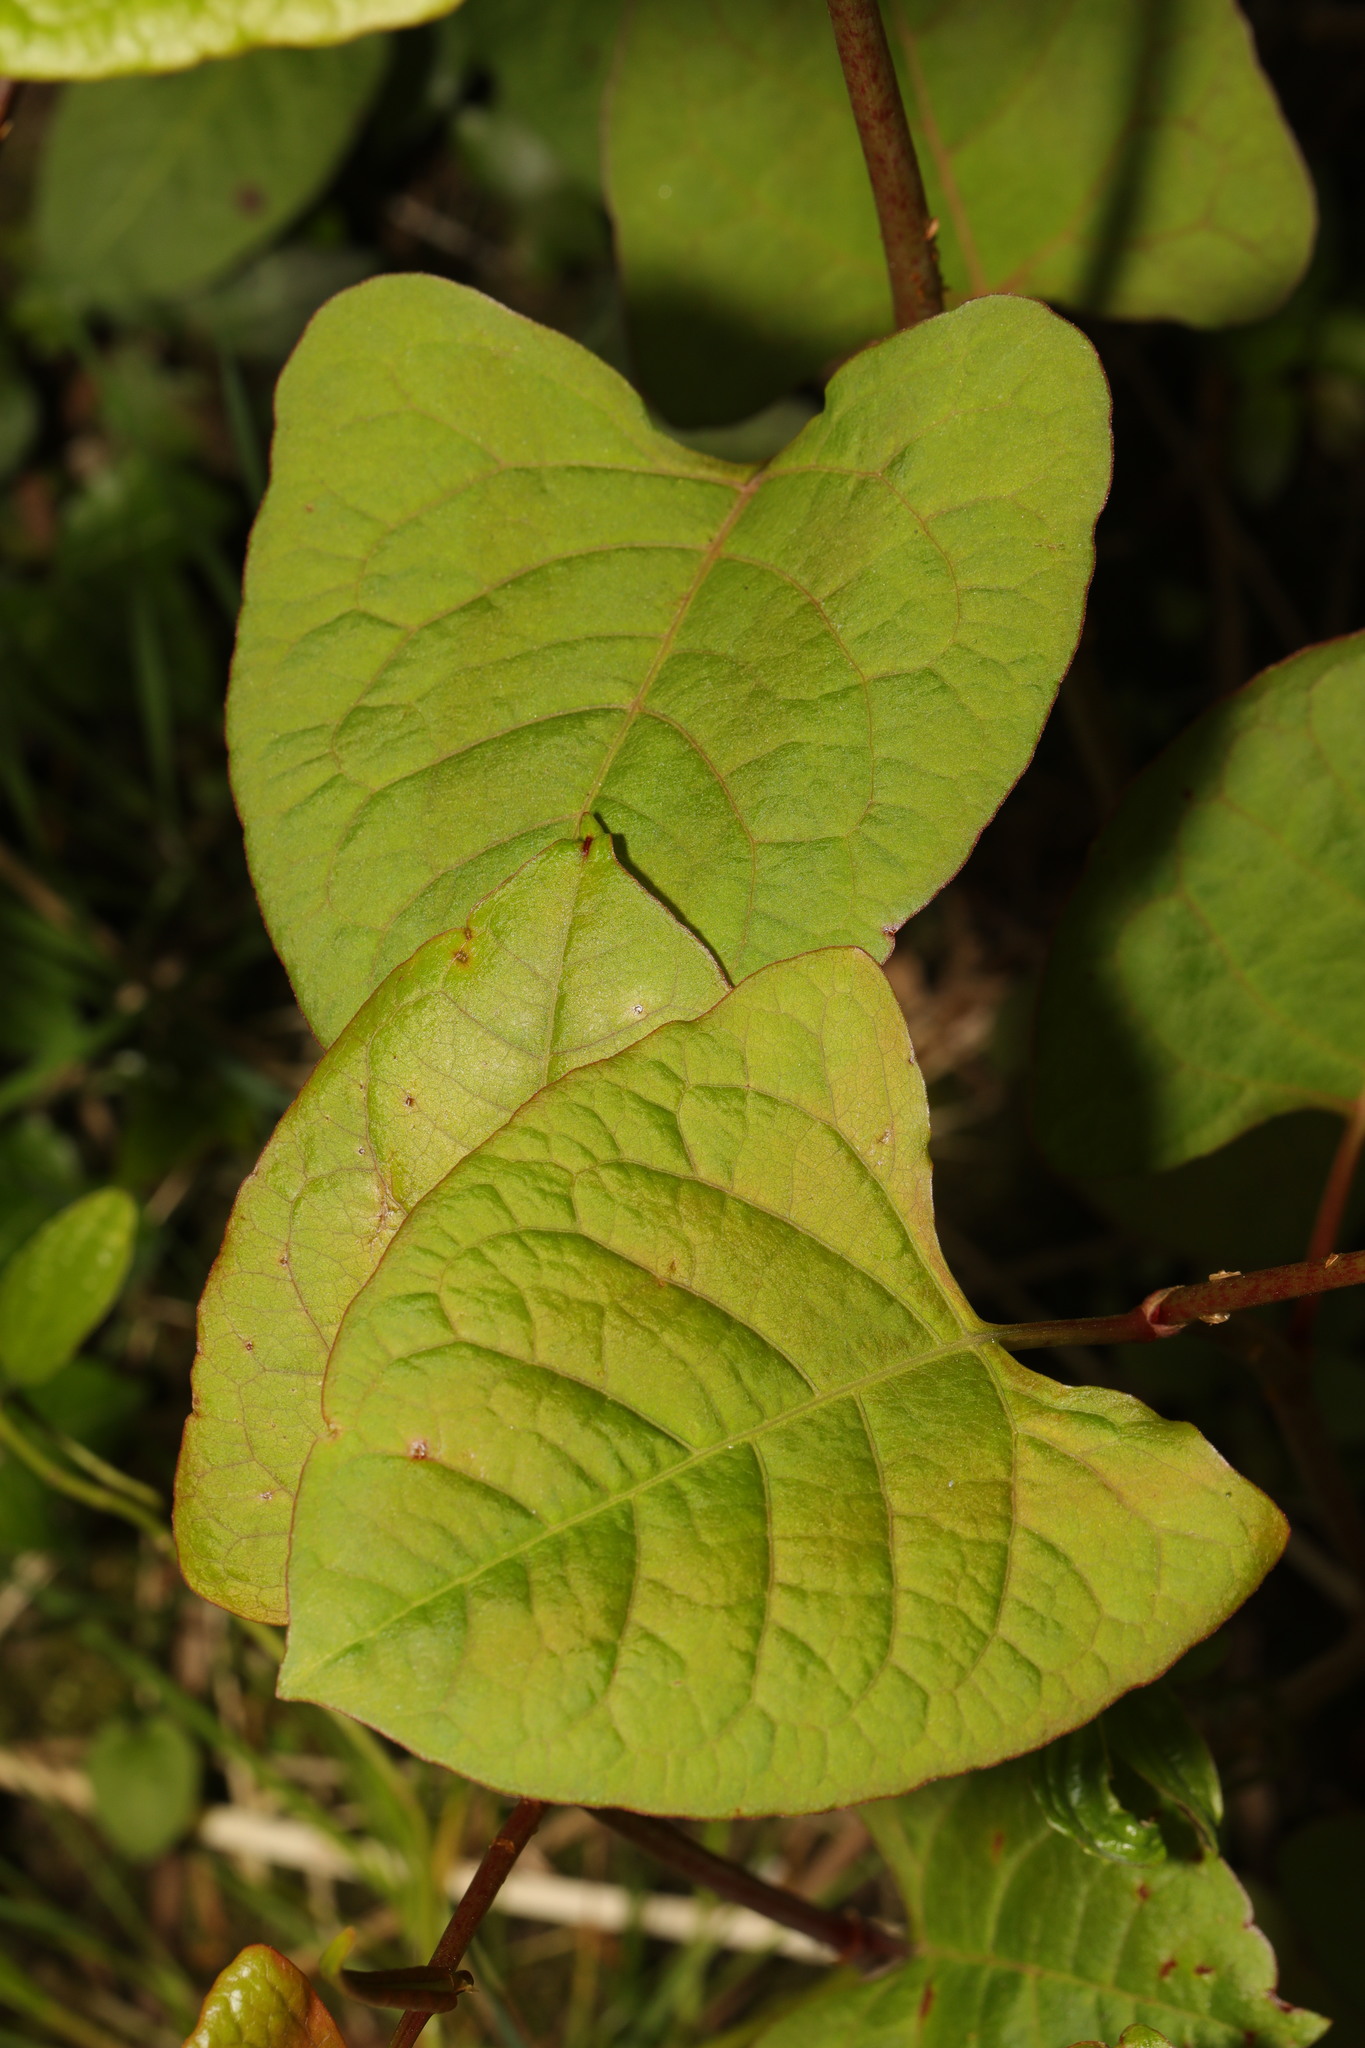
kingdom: Plantae
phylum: Tracheophyta
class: Magnoliopsida
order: Caryophyllales
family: Polygonaceae
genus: Reynoutria
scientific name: Reynoutria japonica
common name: Japanese knotweed
